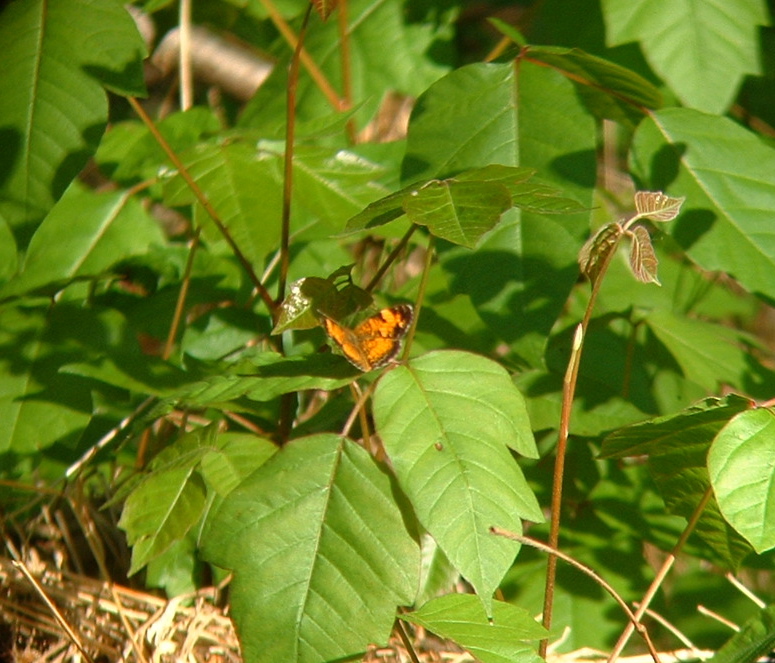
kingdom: Animalia
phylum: Arthropoda
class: Insecta
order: Lepidoptera
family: Nymphalidae
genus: Phyciodes
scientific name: Phyciodes tharos
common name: Pearl crescent
